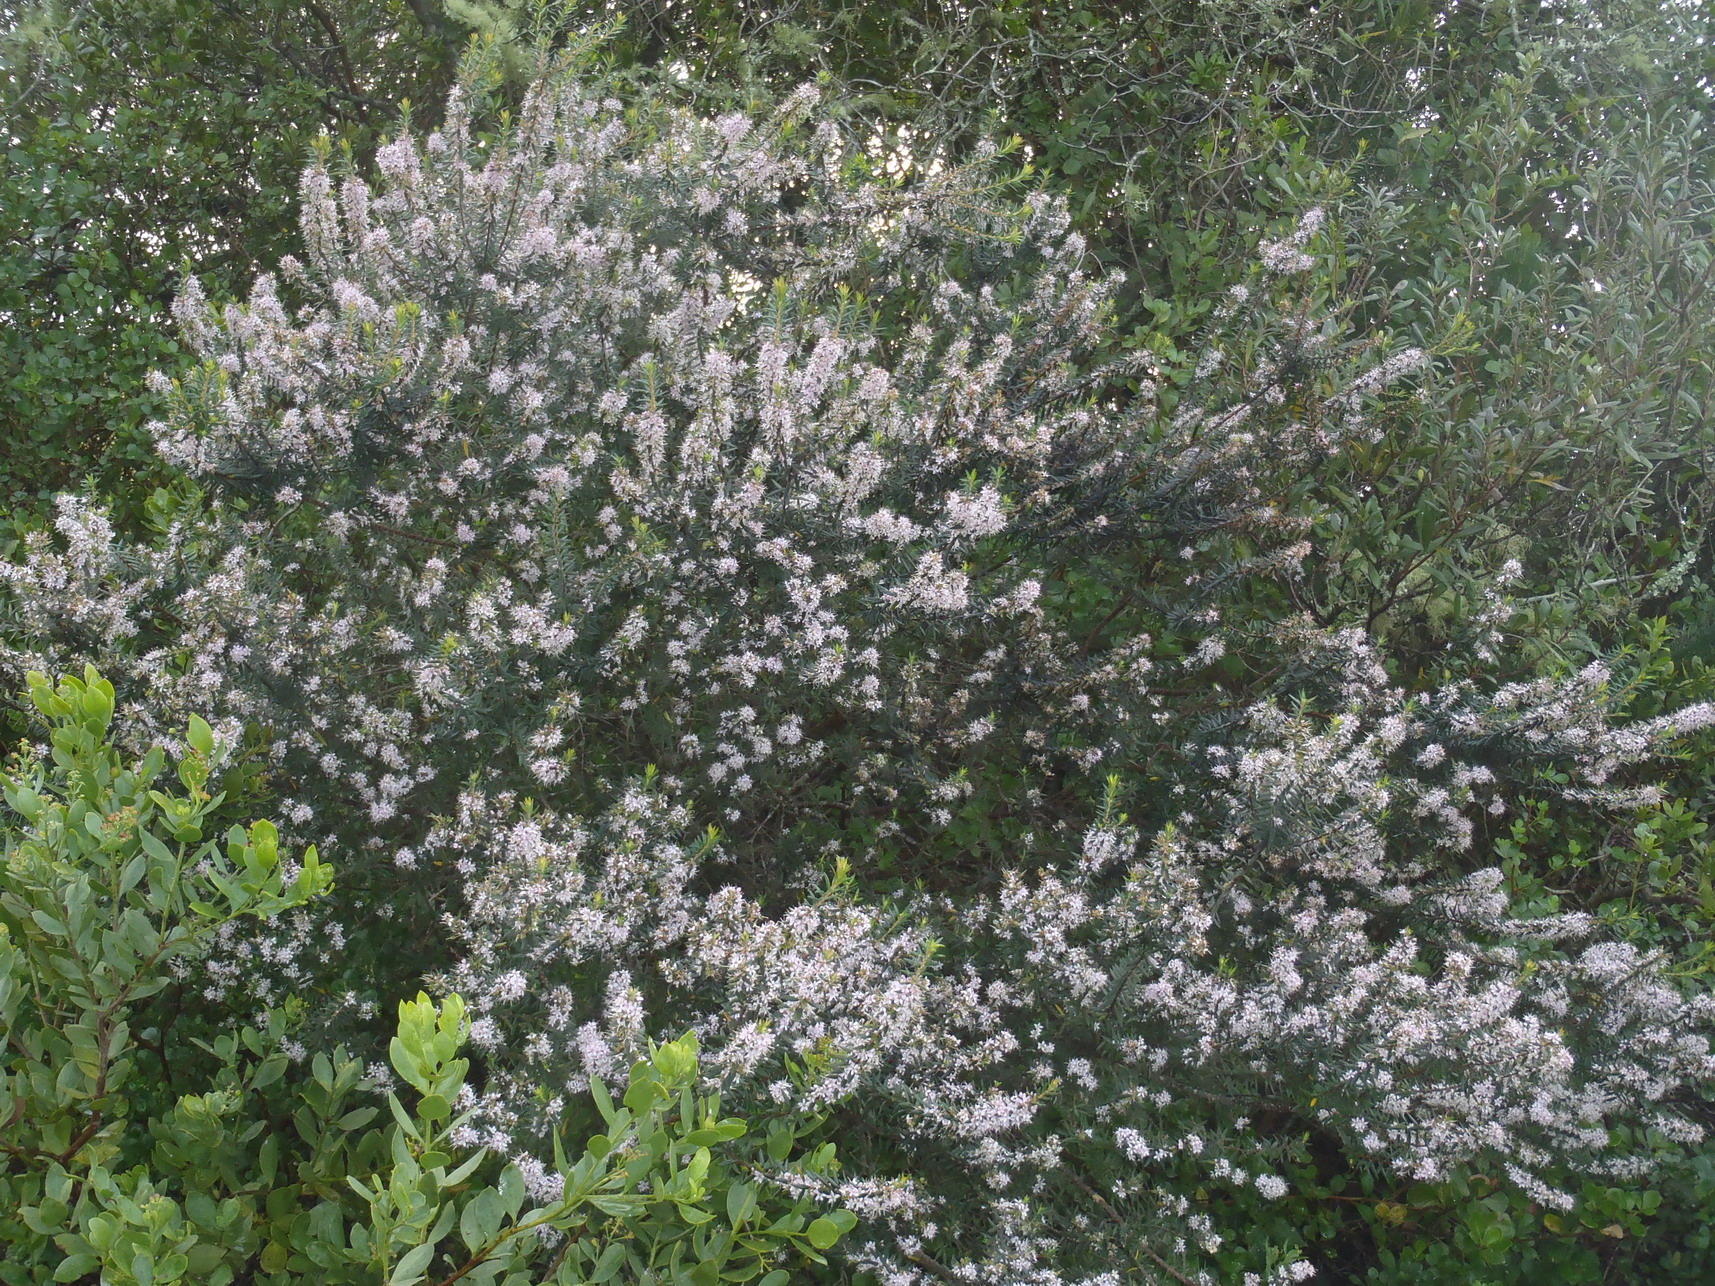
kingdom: Plantae
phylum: Tracheophyta
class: Magnoliopsida
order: Sapindales
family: Rutaceae
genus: Agathosma
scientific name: Agathosma ovata
